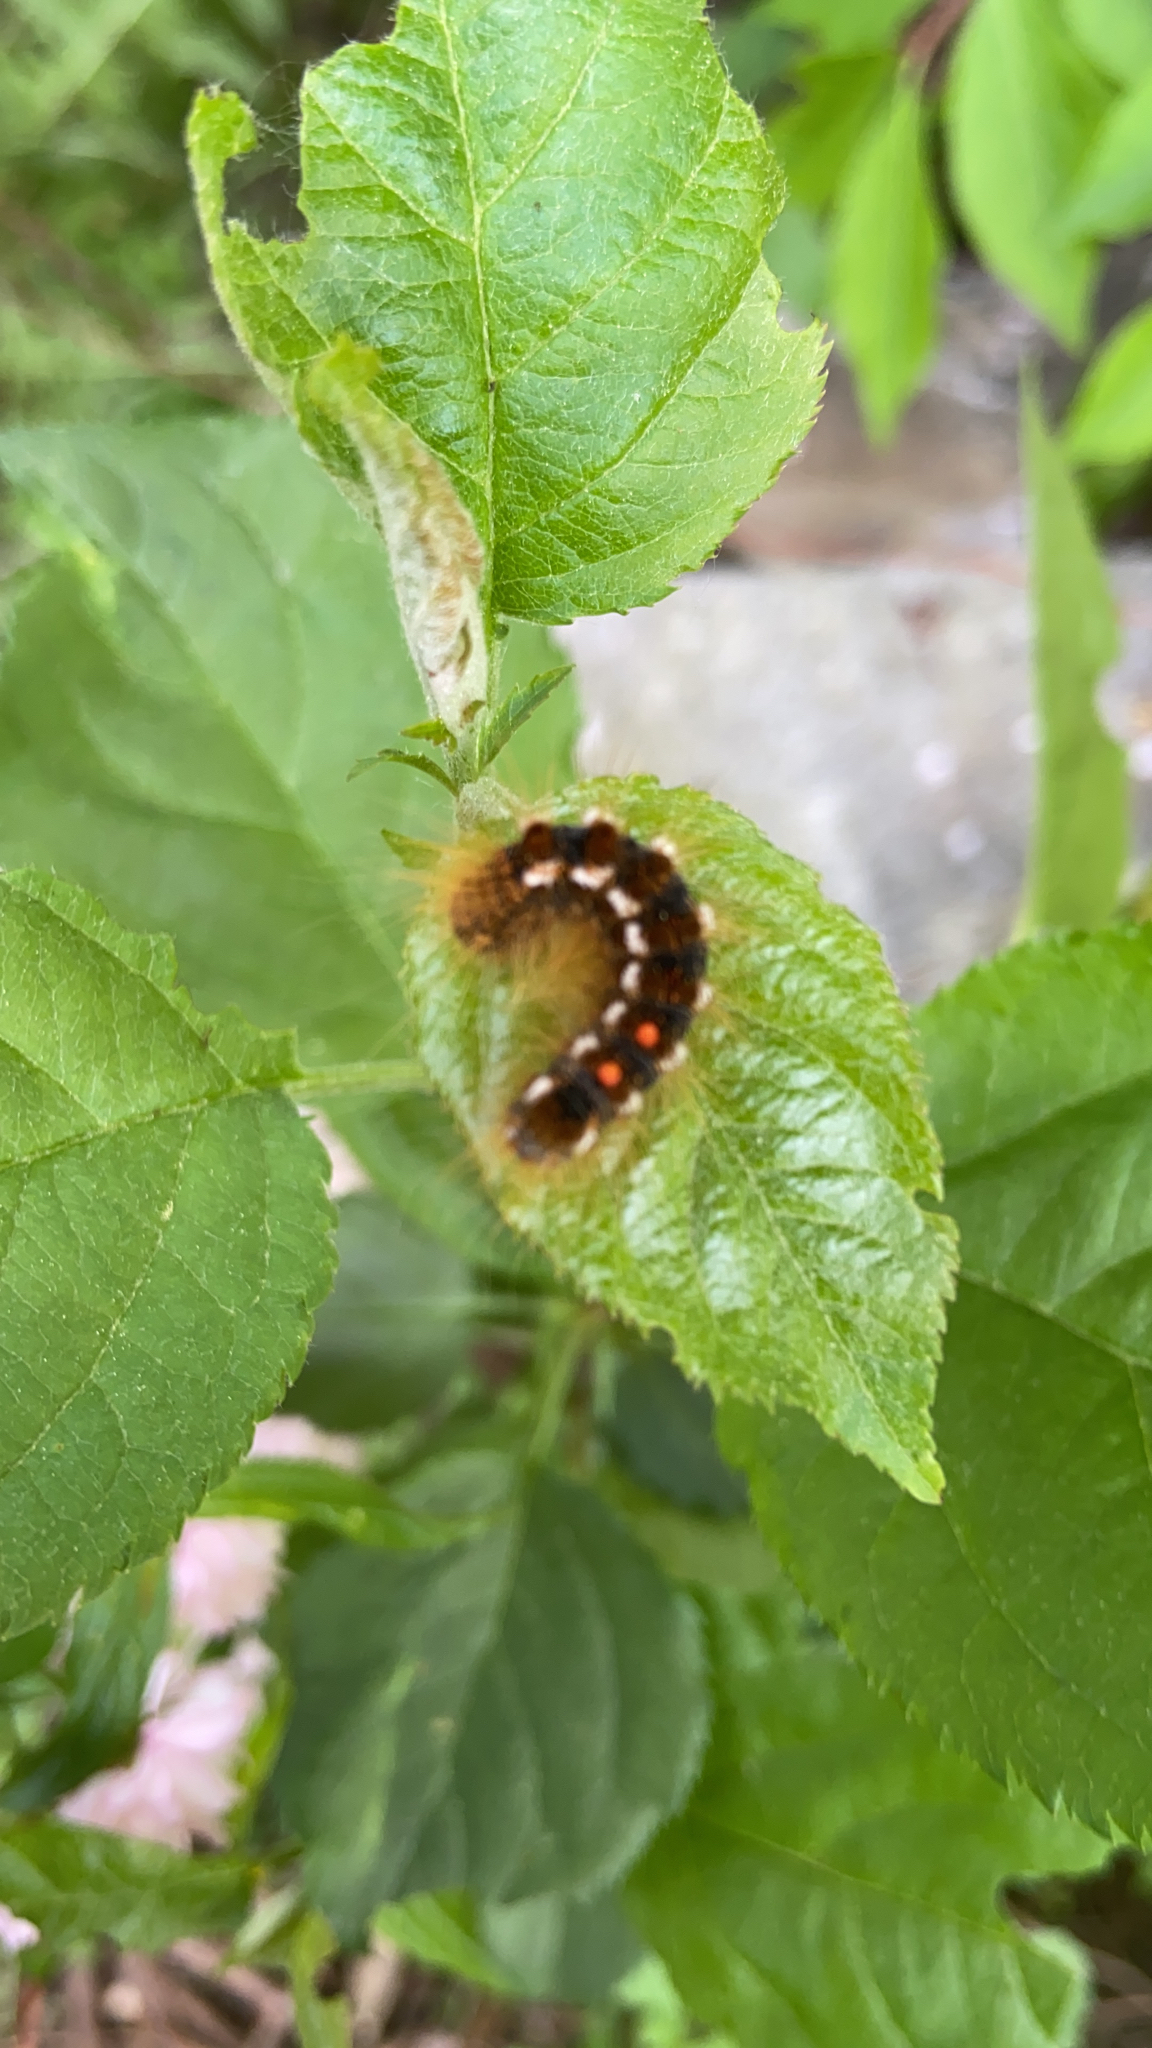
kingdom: Animalia
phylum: Arthropoda
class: Insecta
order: Lepidoptera
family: Erebidae
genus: Euproctis
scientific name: Euproctis chrysorrhoea
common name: Brown-tail
